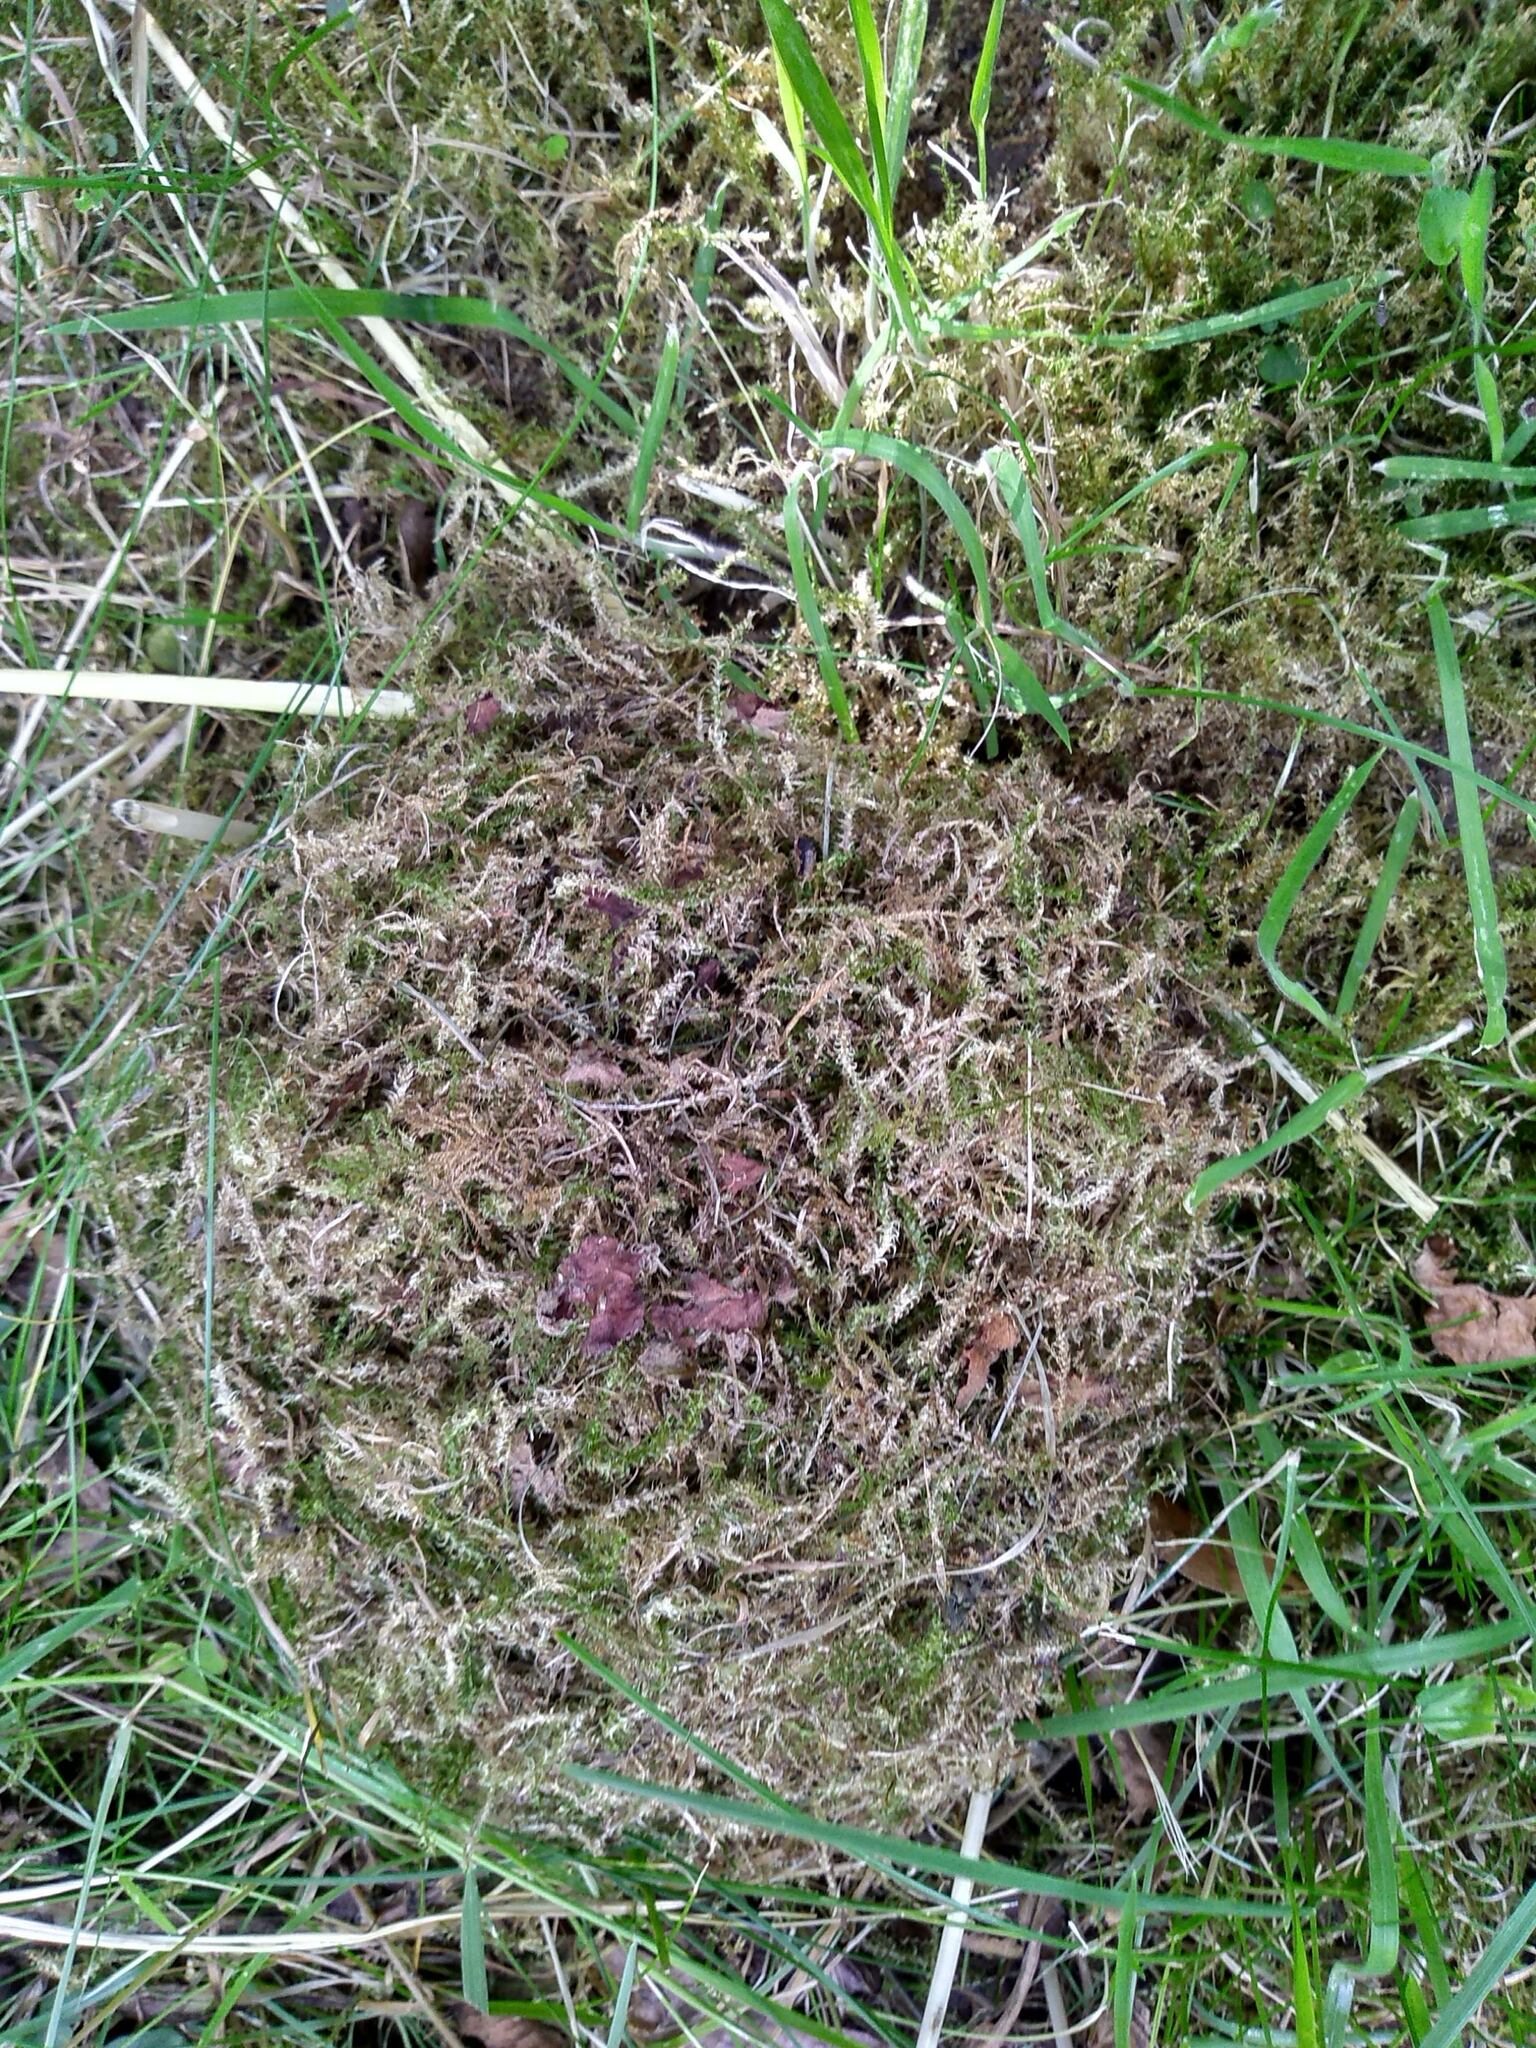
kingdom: Animalia
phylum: Arthropoda
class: Insecta
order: Hymenoptera
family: Apidae
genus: Bombus
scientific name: Bombus pascuorum
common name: Common carder bee
